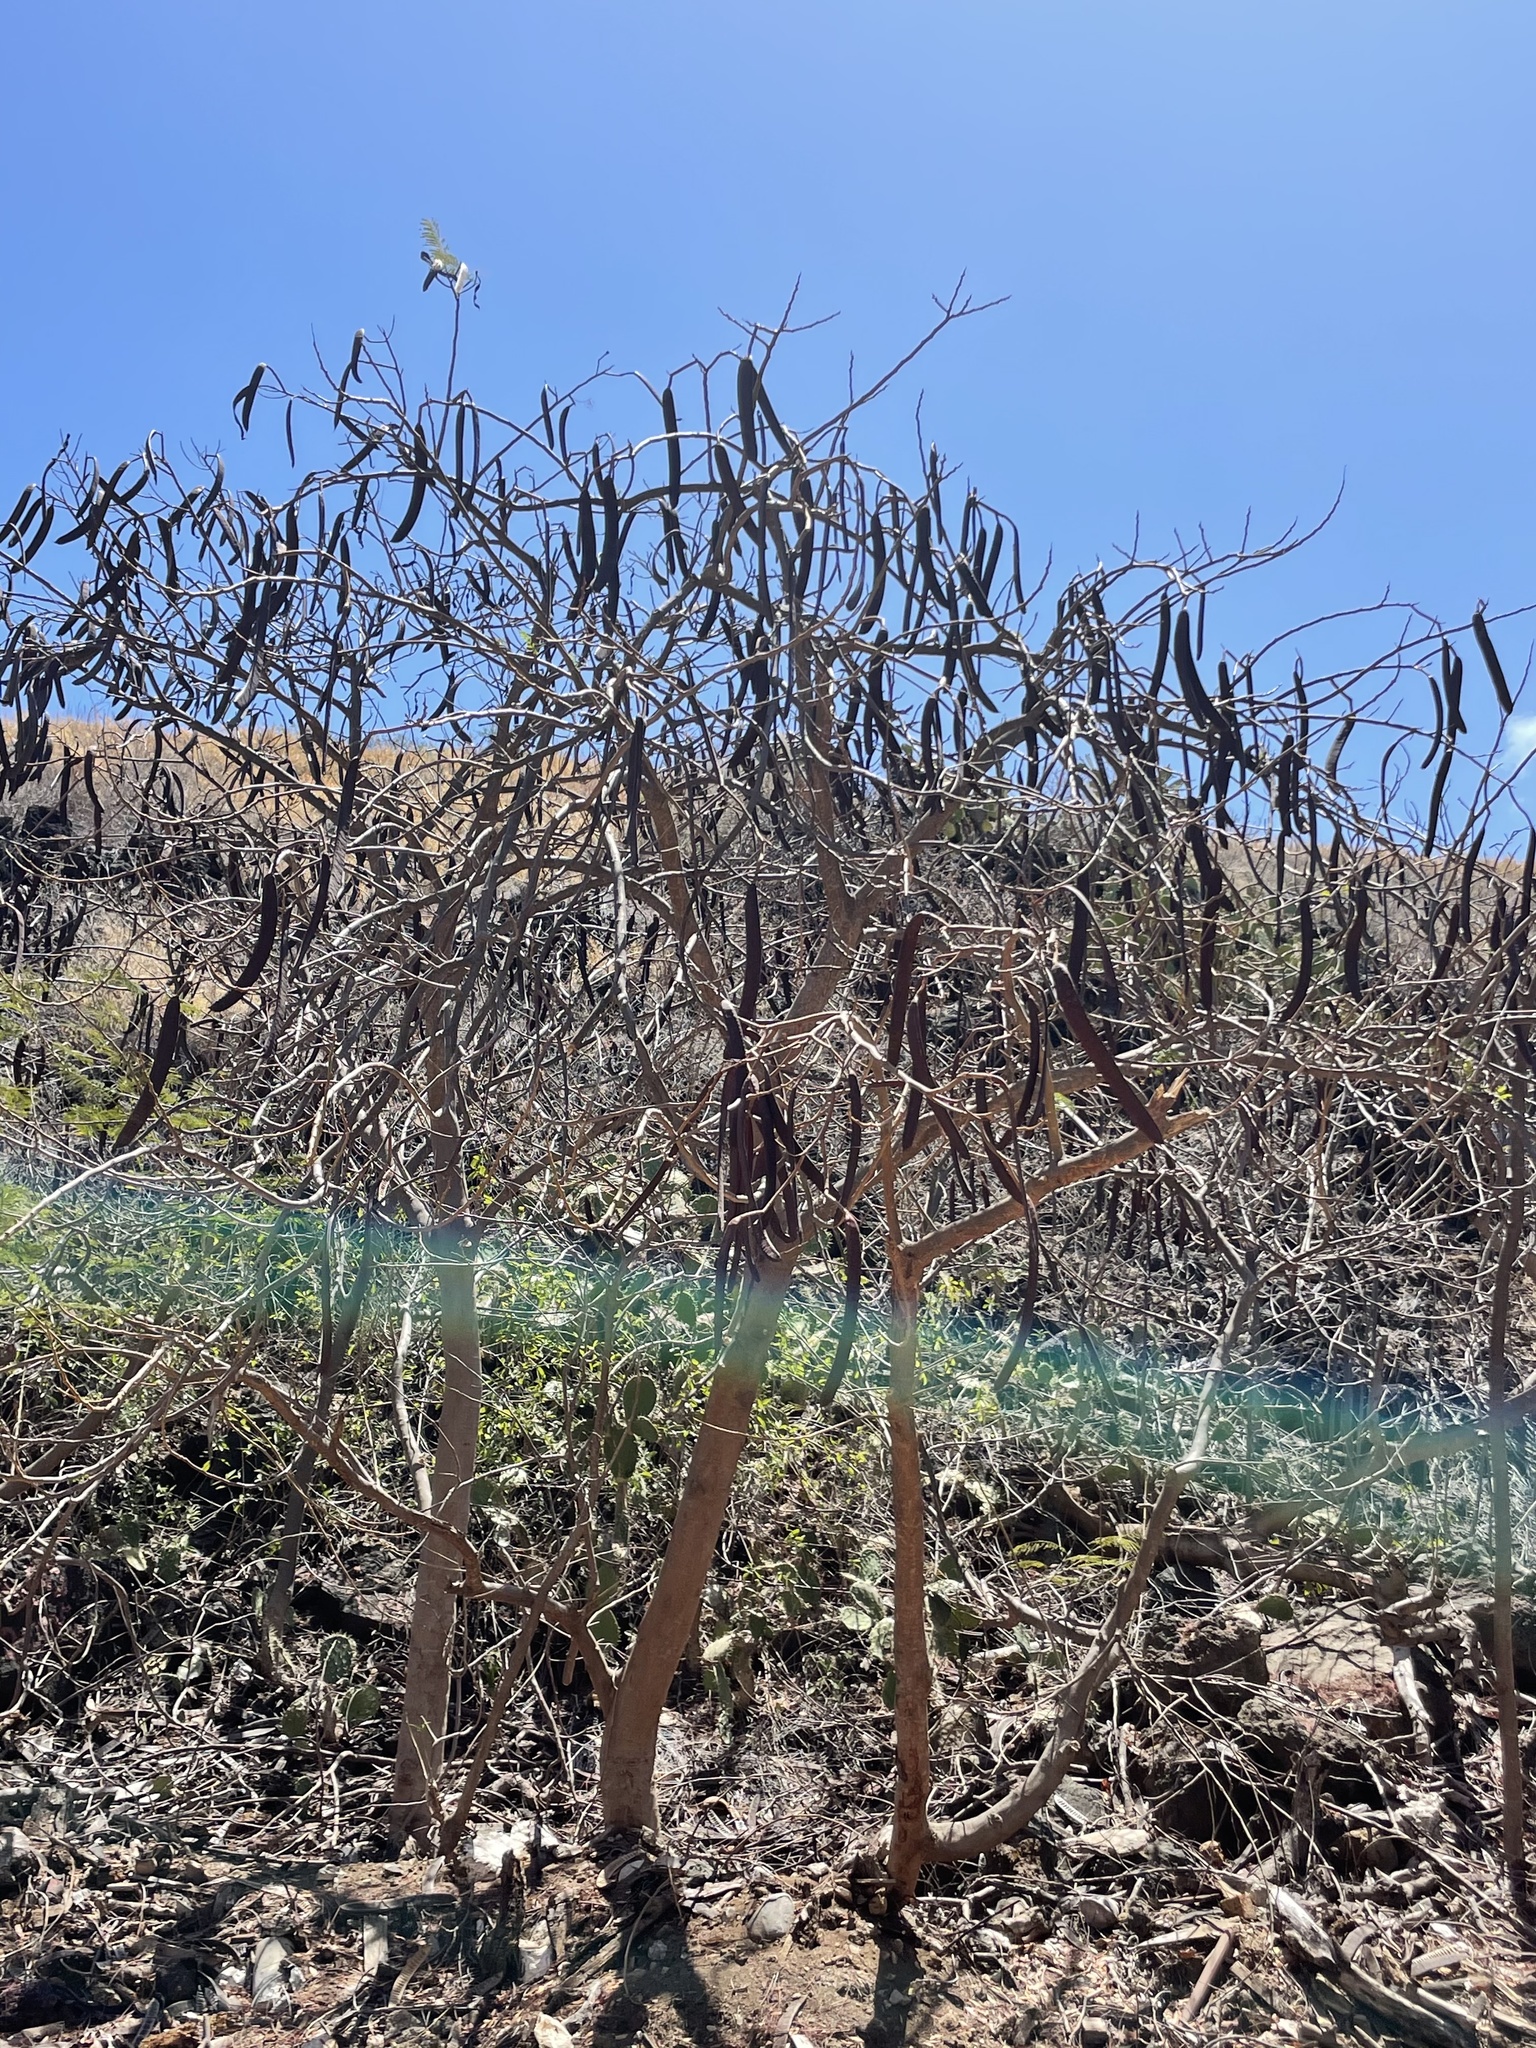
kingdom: Plantae
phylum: Tracheophyta
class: Magnoliopsida
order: Fabales
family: Fabaceae
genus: Delonix
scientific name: Delonix regia
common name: Royal poinciana
